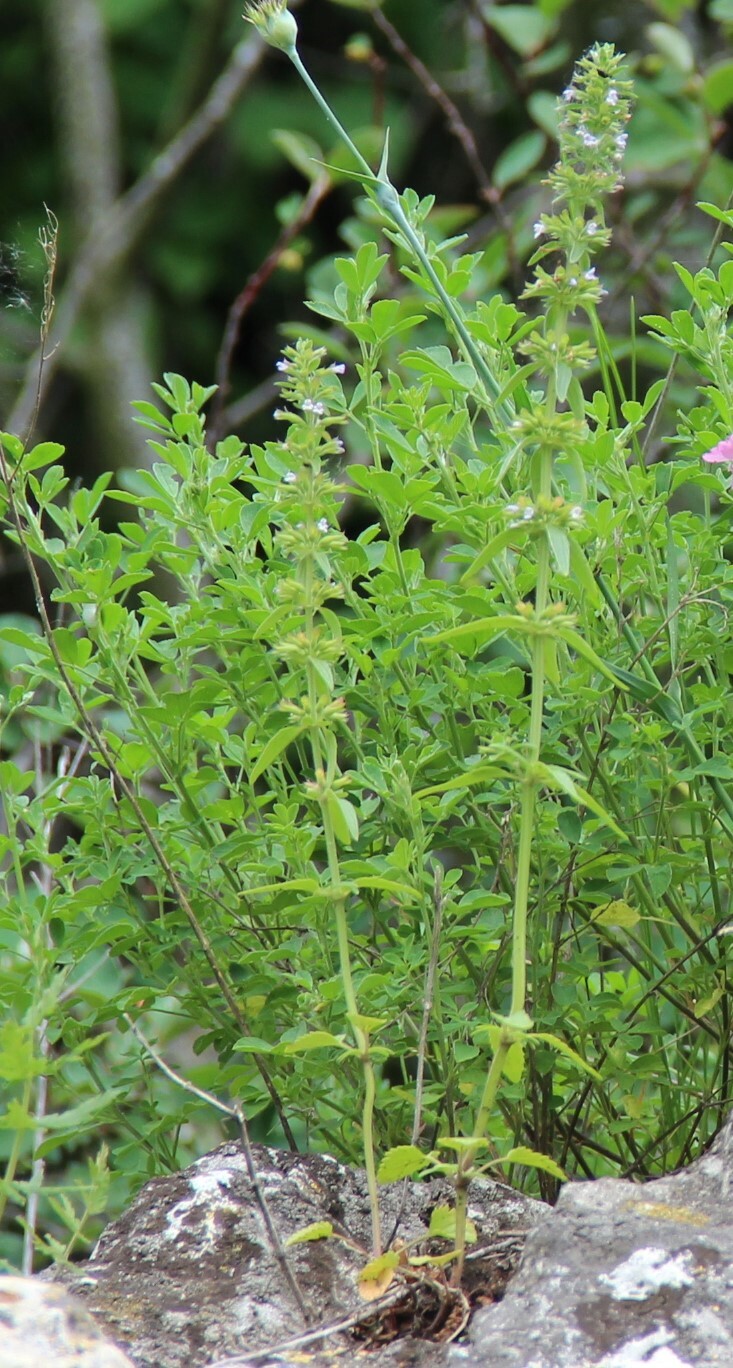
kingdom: Plantae
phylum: Tracheophyta
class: Magnoliopsida
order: Lamiales
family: Lamiaceae
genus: Dracocephalum
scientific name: Dracocephalum thymiflorum
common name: Thymeleaf dragonhead
